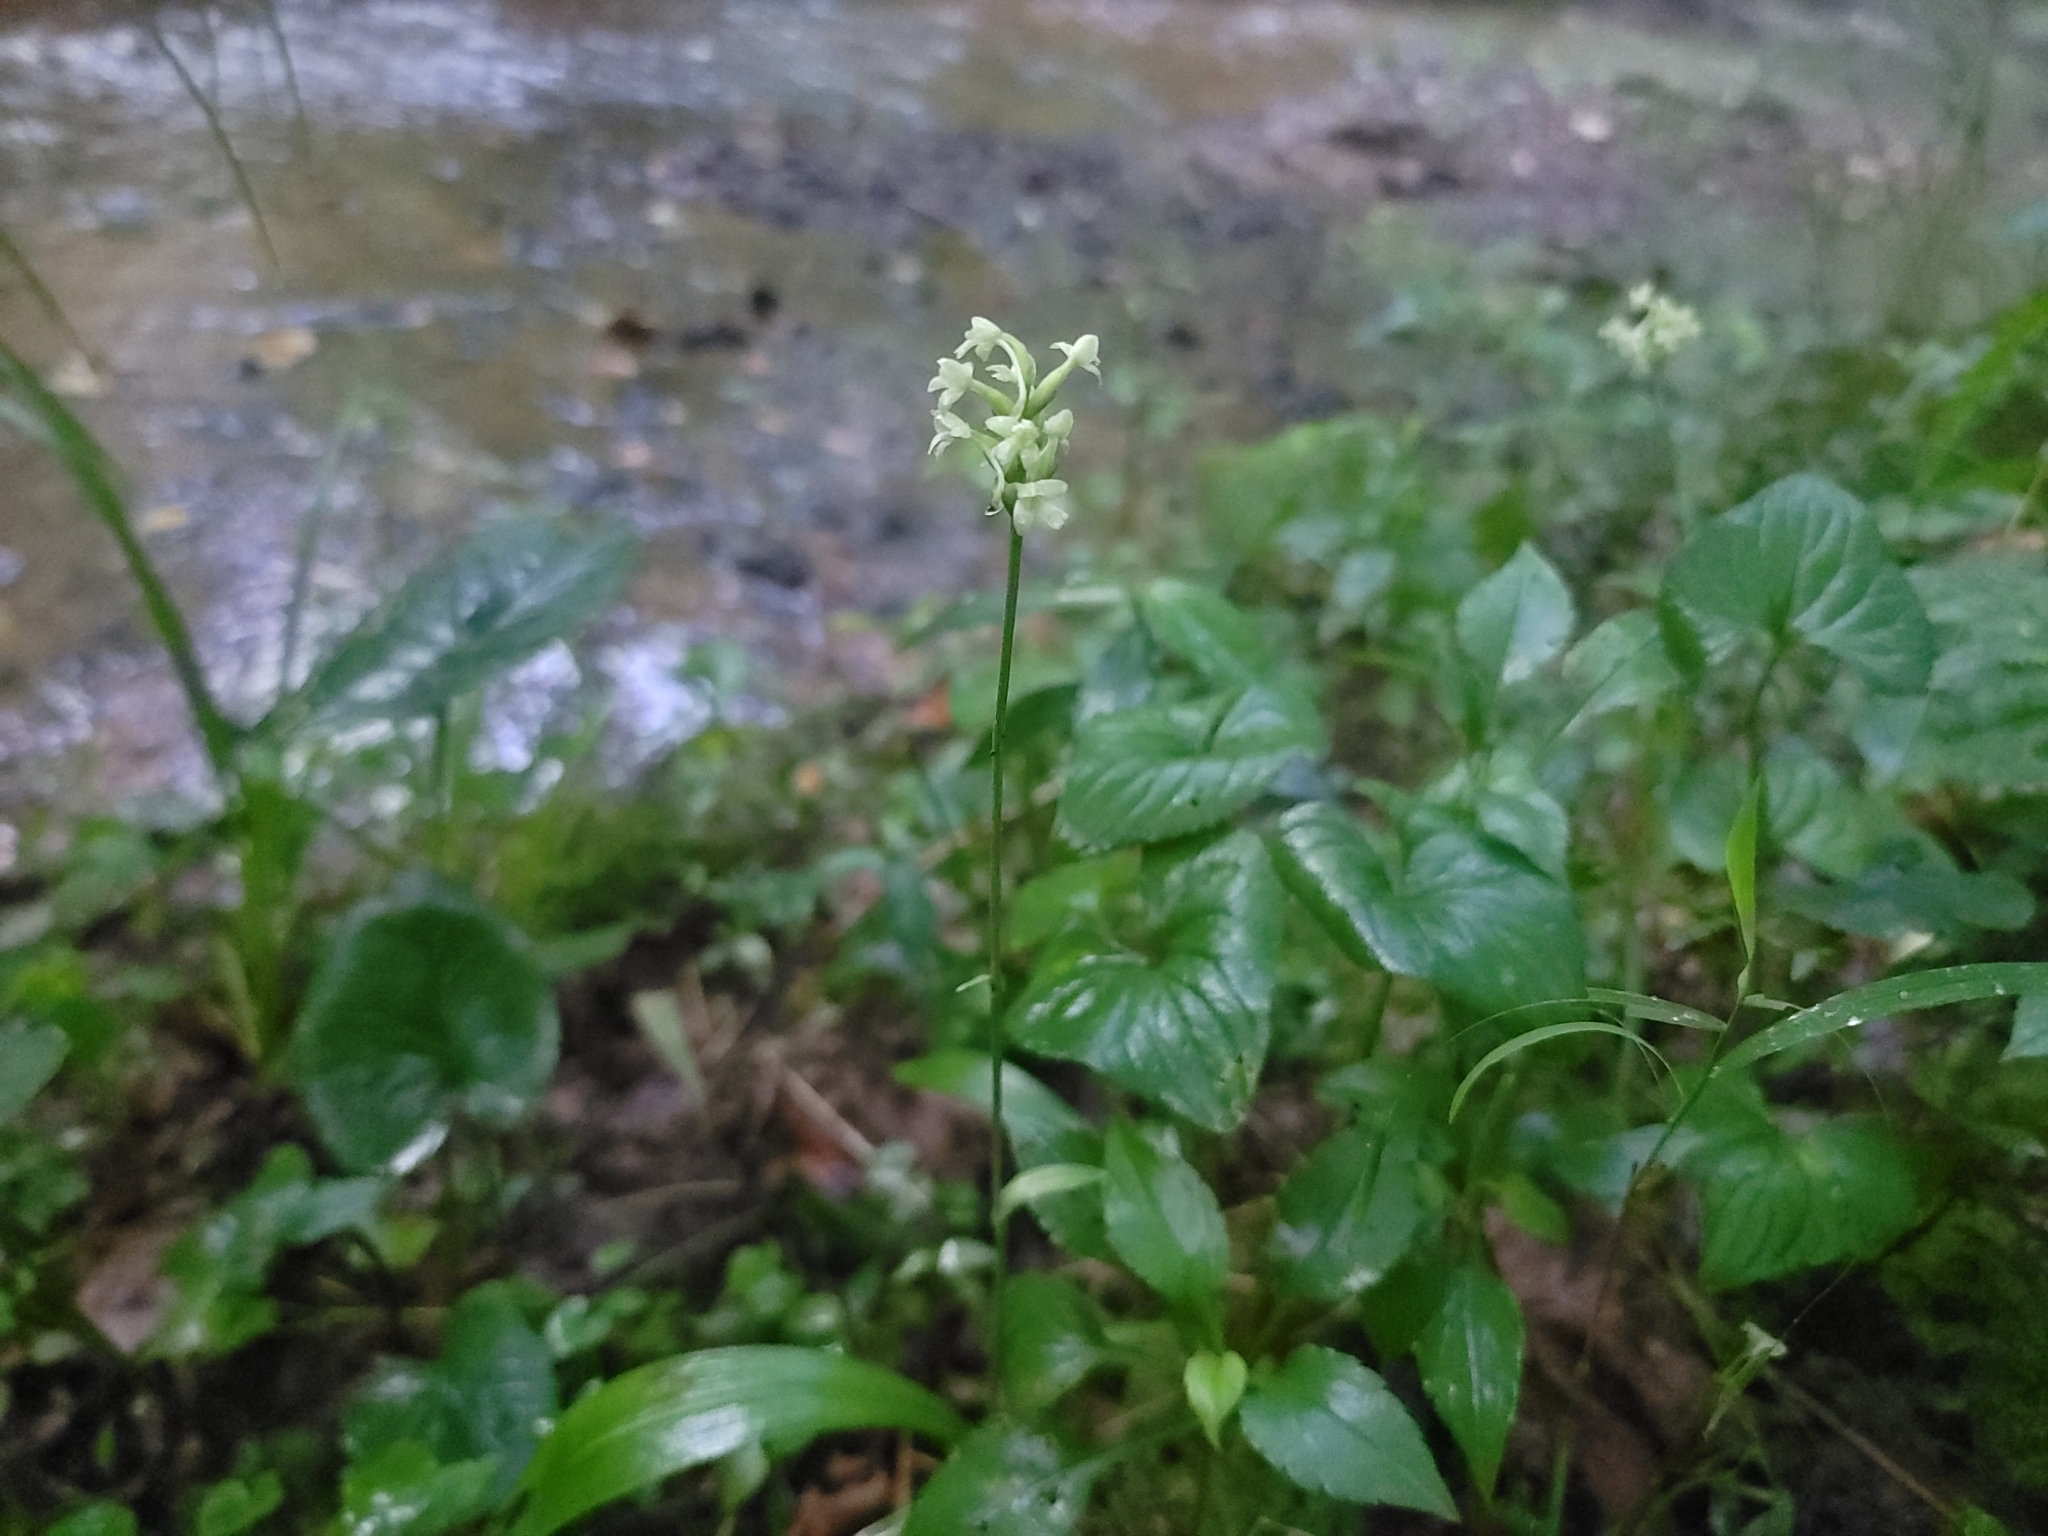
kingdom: Plantae
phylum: Tracheophyta
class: Liliopsida
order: Asparagales
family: Orchidaceae
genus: Platanthera
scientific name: Platanthera clavellata
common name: Club-spur orchid
